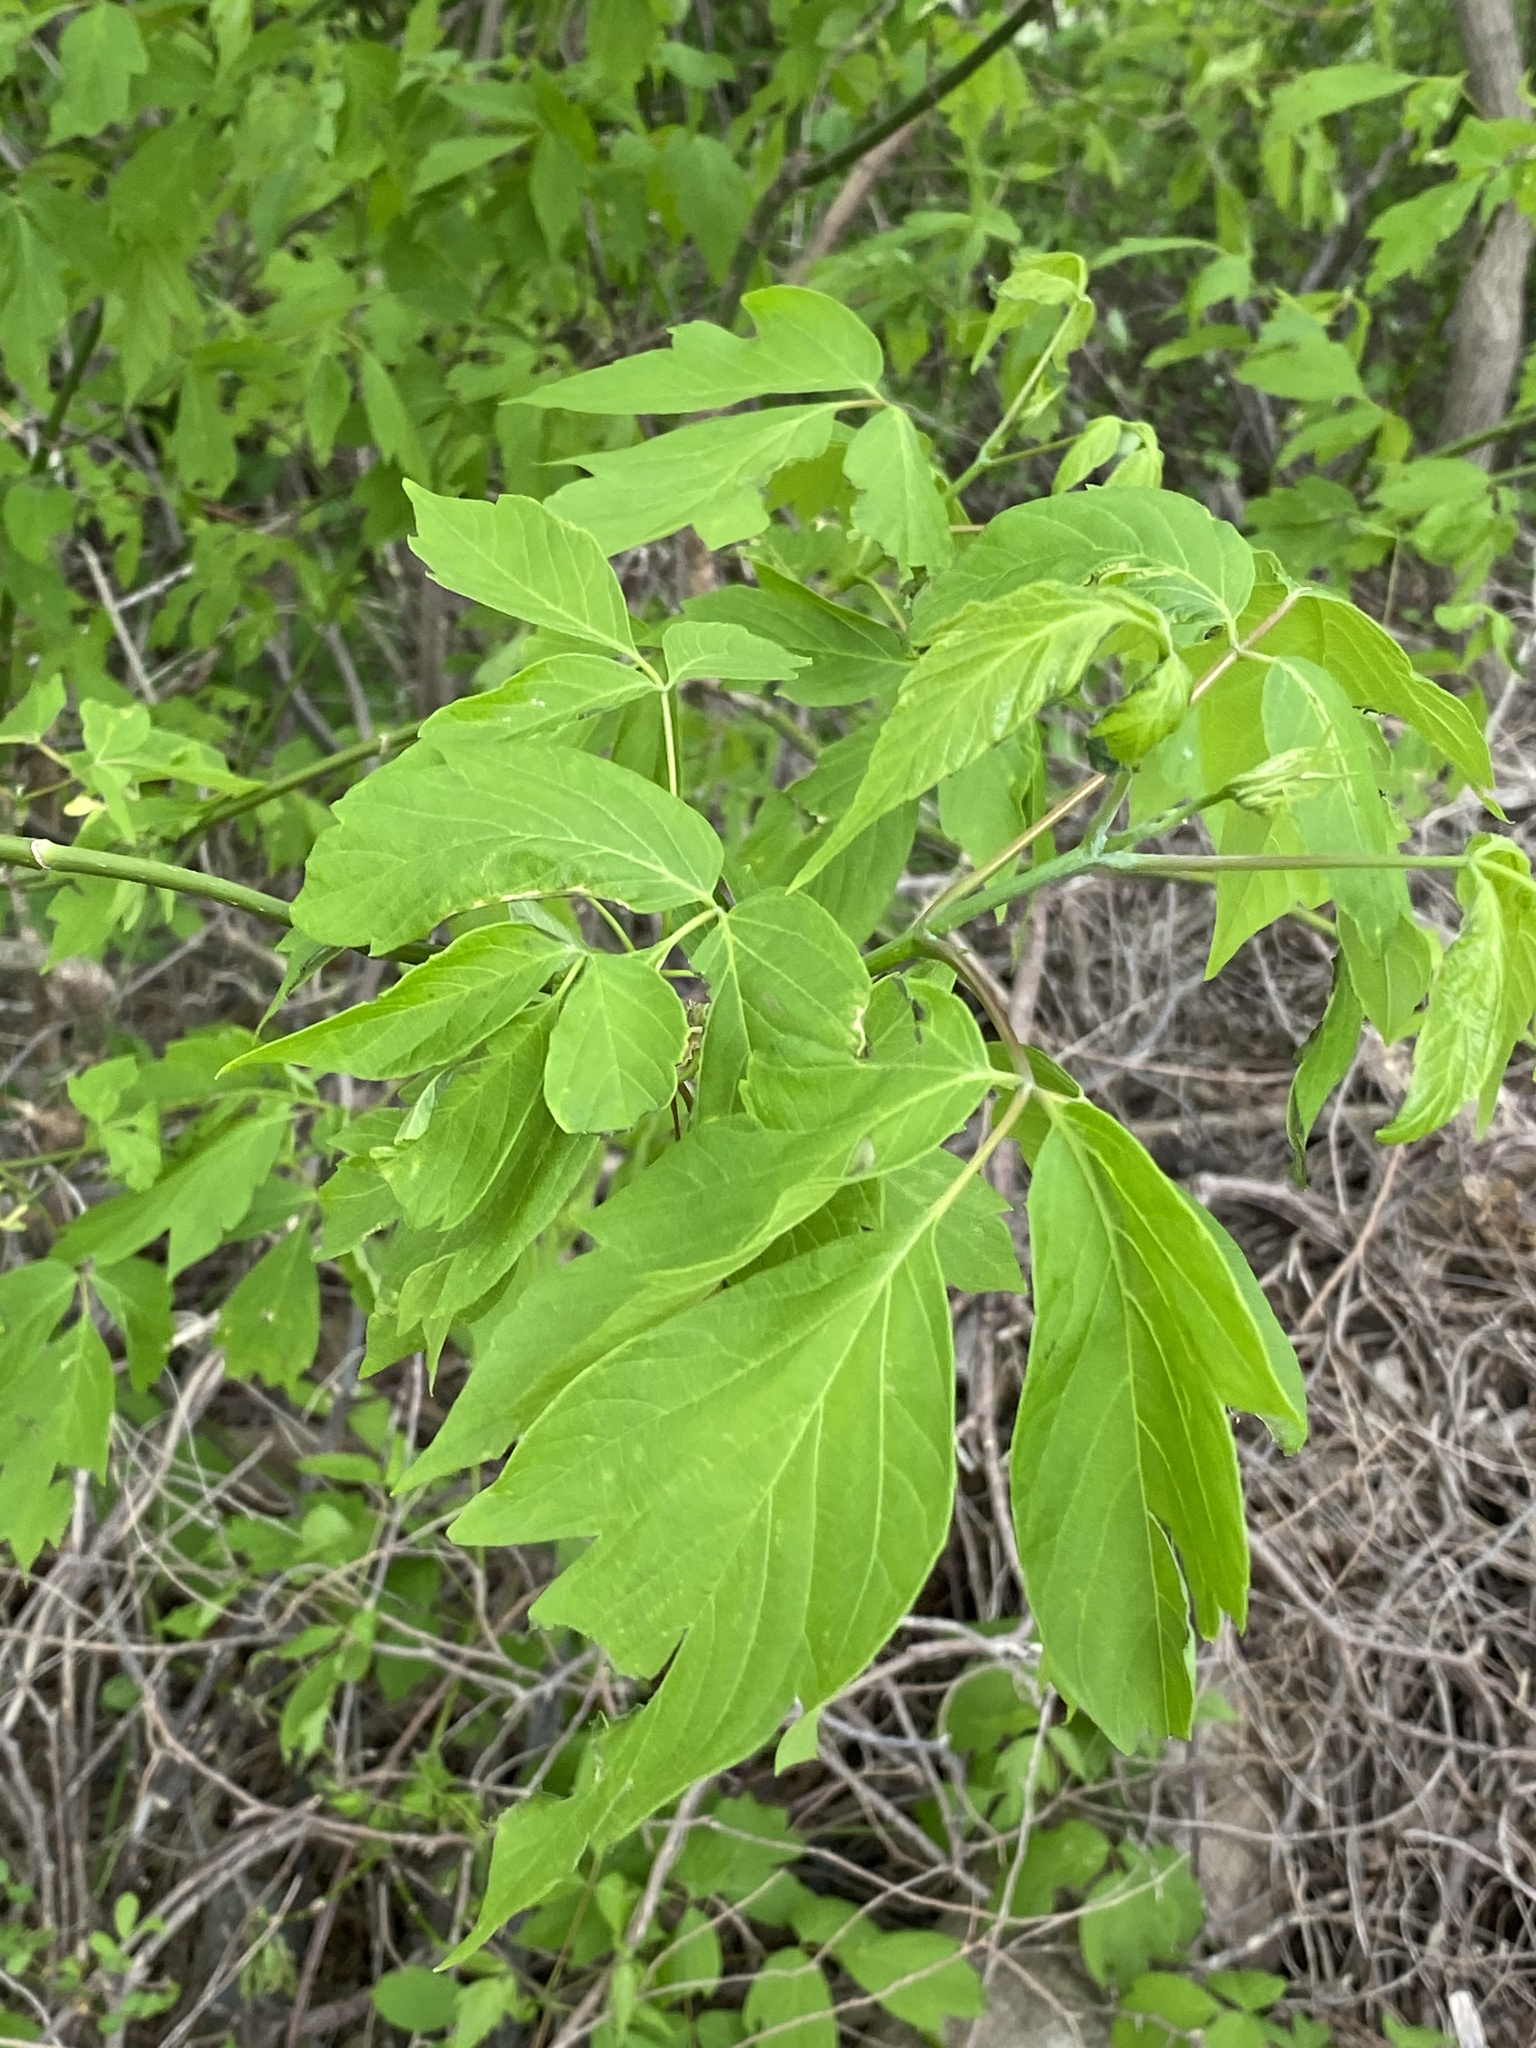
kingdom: Plantae
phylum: Tracheophyta
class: Magnoliopsida
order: Sapindales
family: Sapindaceae
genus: Acer
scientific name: Acer negundo
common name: Ashleaf maple
